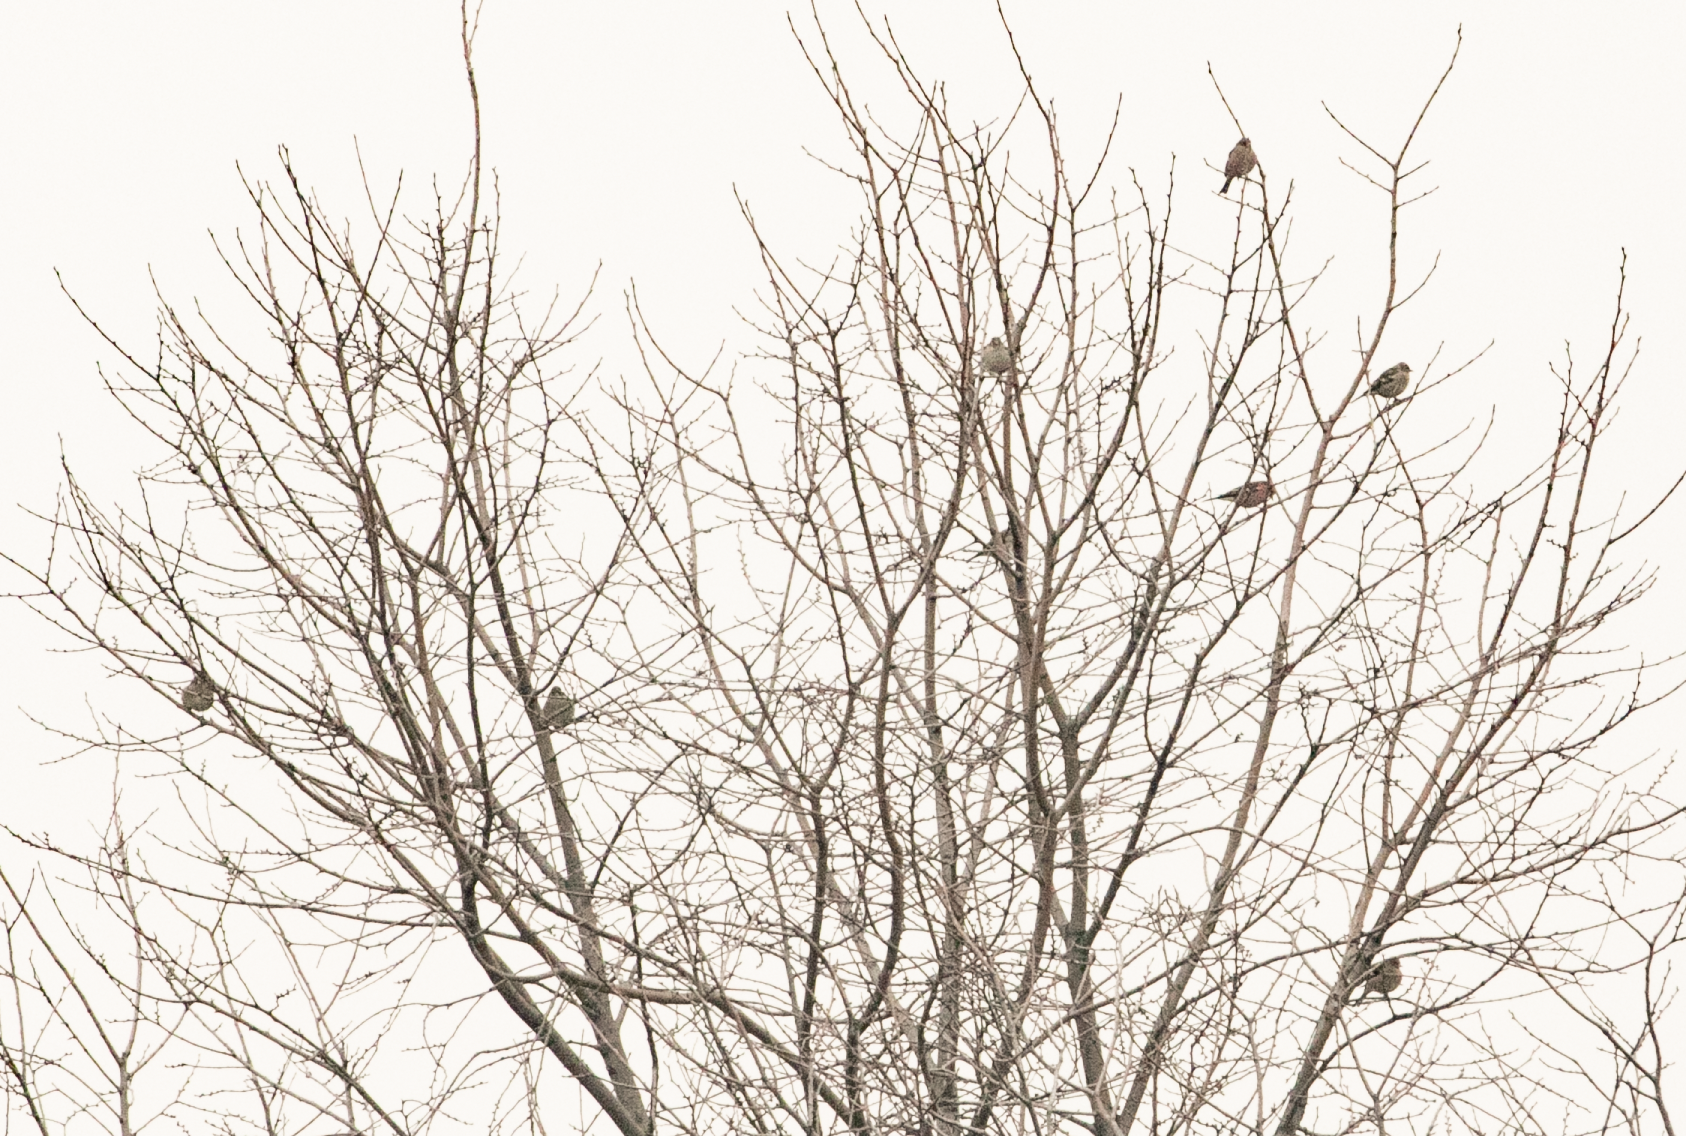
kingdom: Animalia
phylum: Chordata
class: Aves
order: Passeriformes
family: Fringillidae
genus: Fringilla
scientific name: Fringilla coelebs
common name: Common chaffinch
